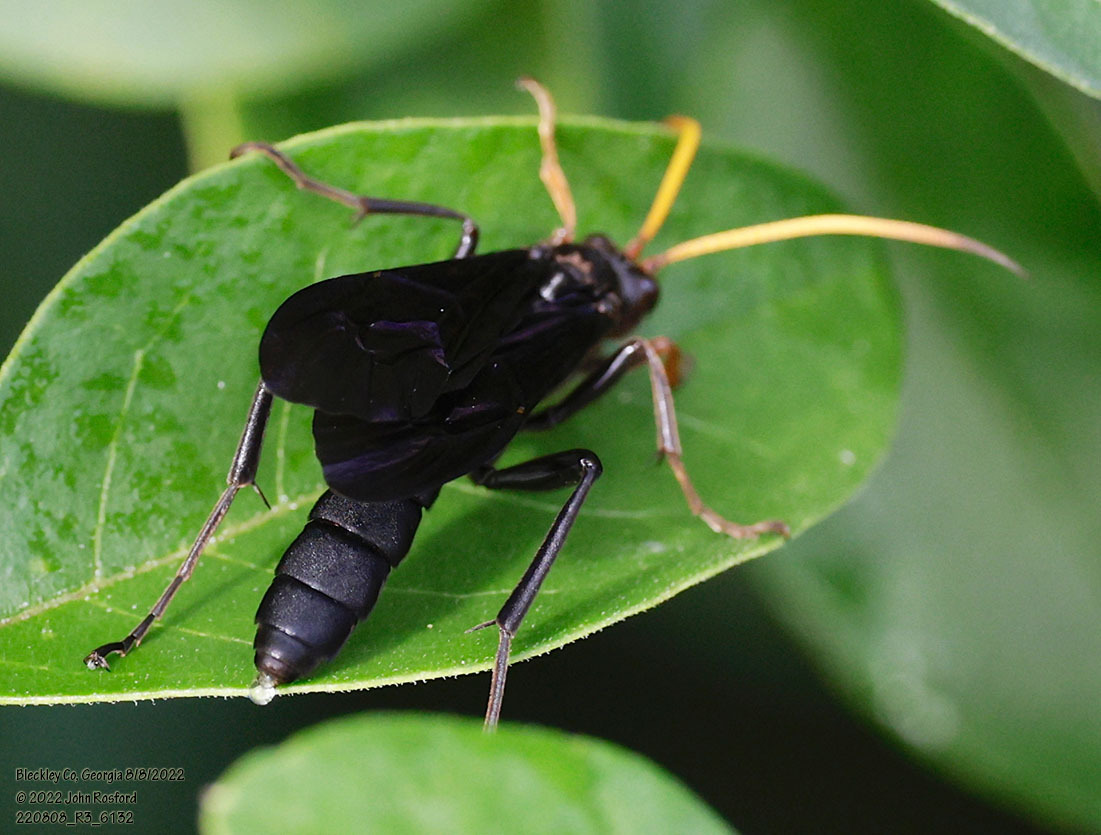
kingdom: Animalia
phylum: Arthropoda
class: Insecta
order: Hymenoptera
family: Ichneumonidae
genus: Gnamptopelta
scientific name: Gnamptopelta obsidianator
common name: Bent-shielded besieger wasp
